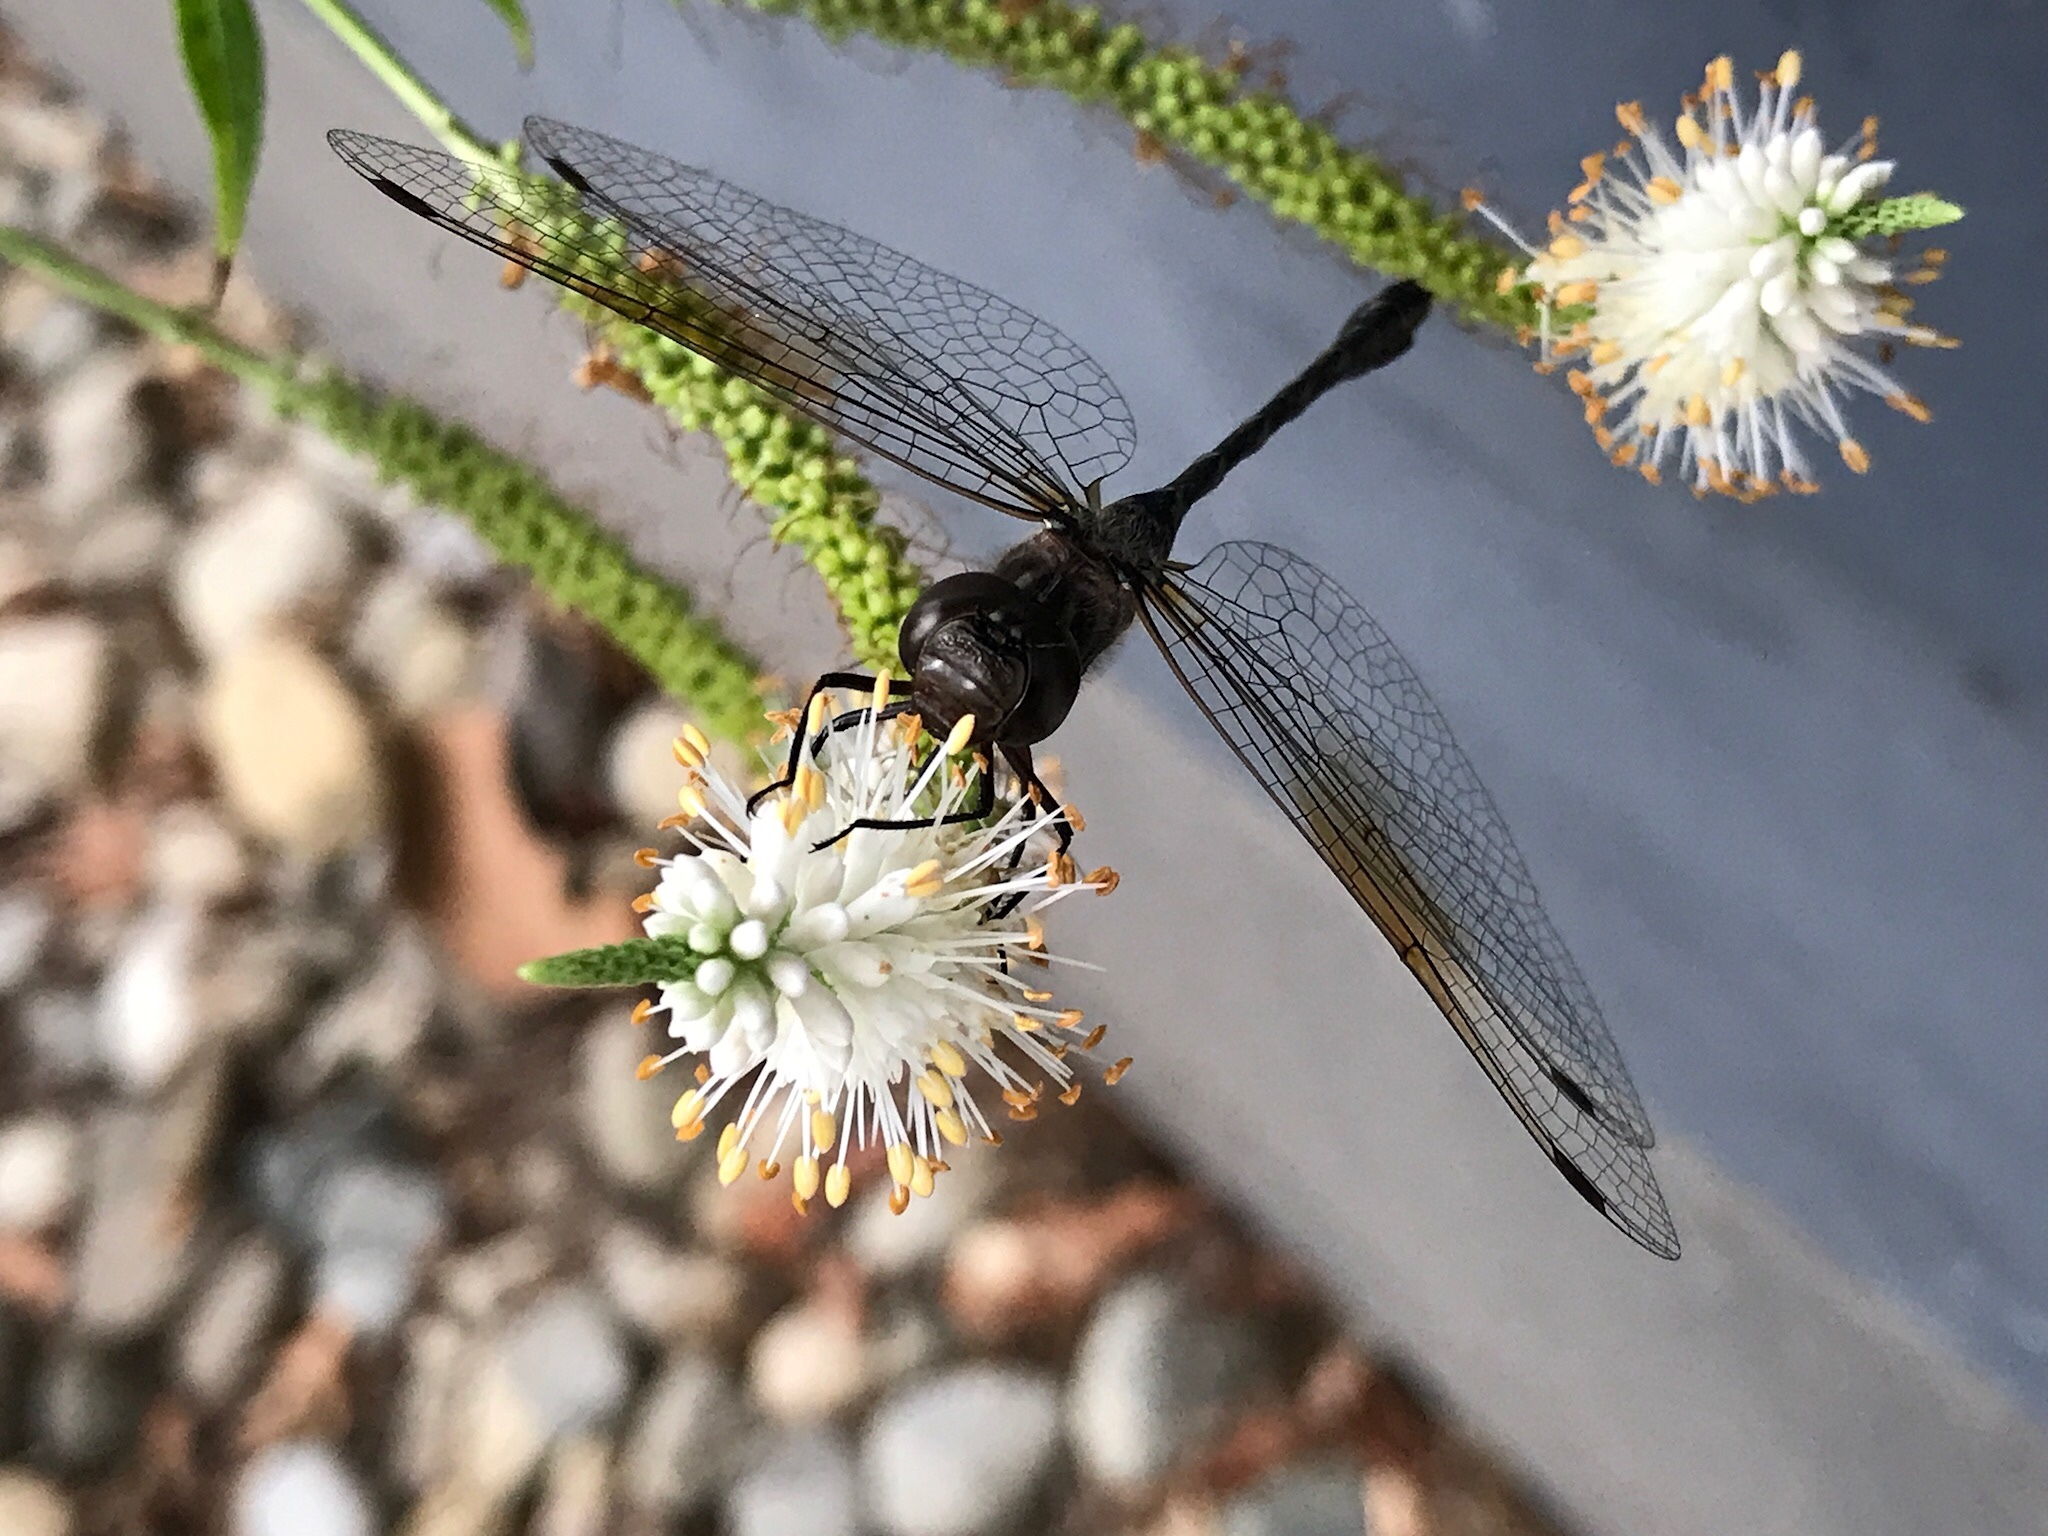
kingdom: Animalia
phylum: Arthropoda
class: Insecta
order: Odonata
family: Aeshnidae
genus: Gomphaeschna
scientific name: Gomphaeschna antilope
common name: Taper-tailed darner
